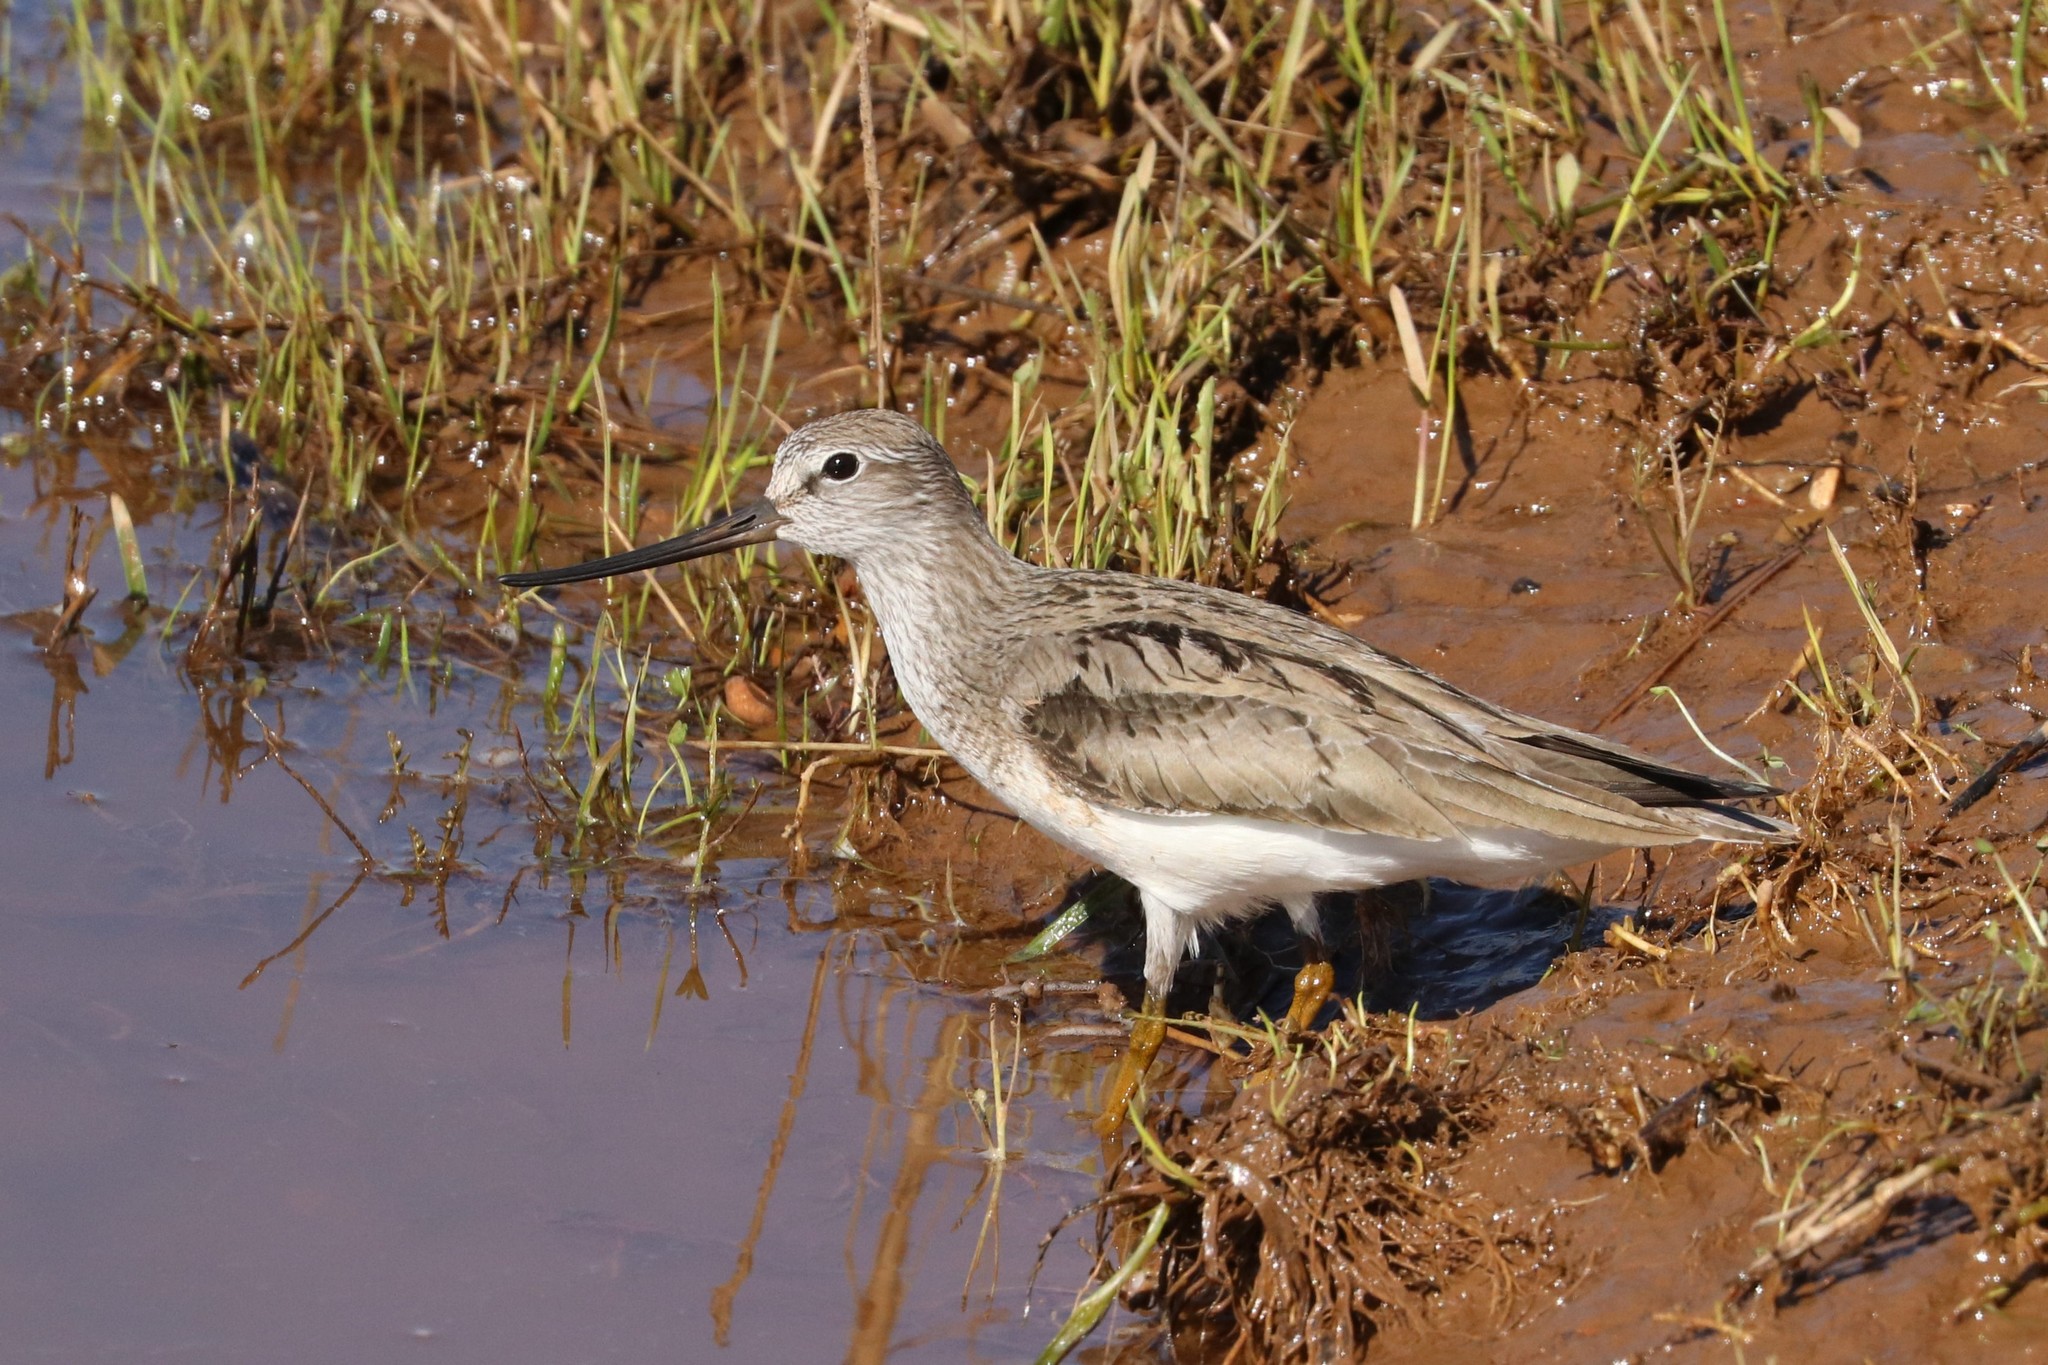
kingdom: Animalia
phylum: Chordata
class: Aves
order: Charadriiformes
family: Scolopacidae
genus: Xenus
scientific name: Xenus cinereus
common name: Terek sandpiper
